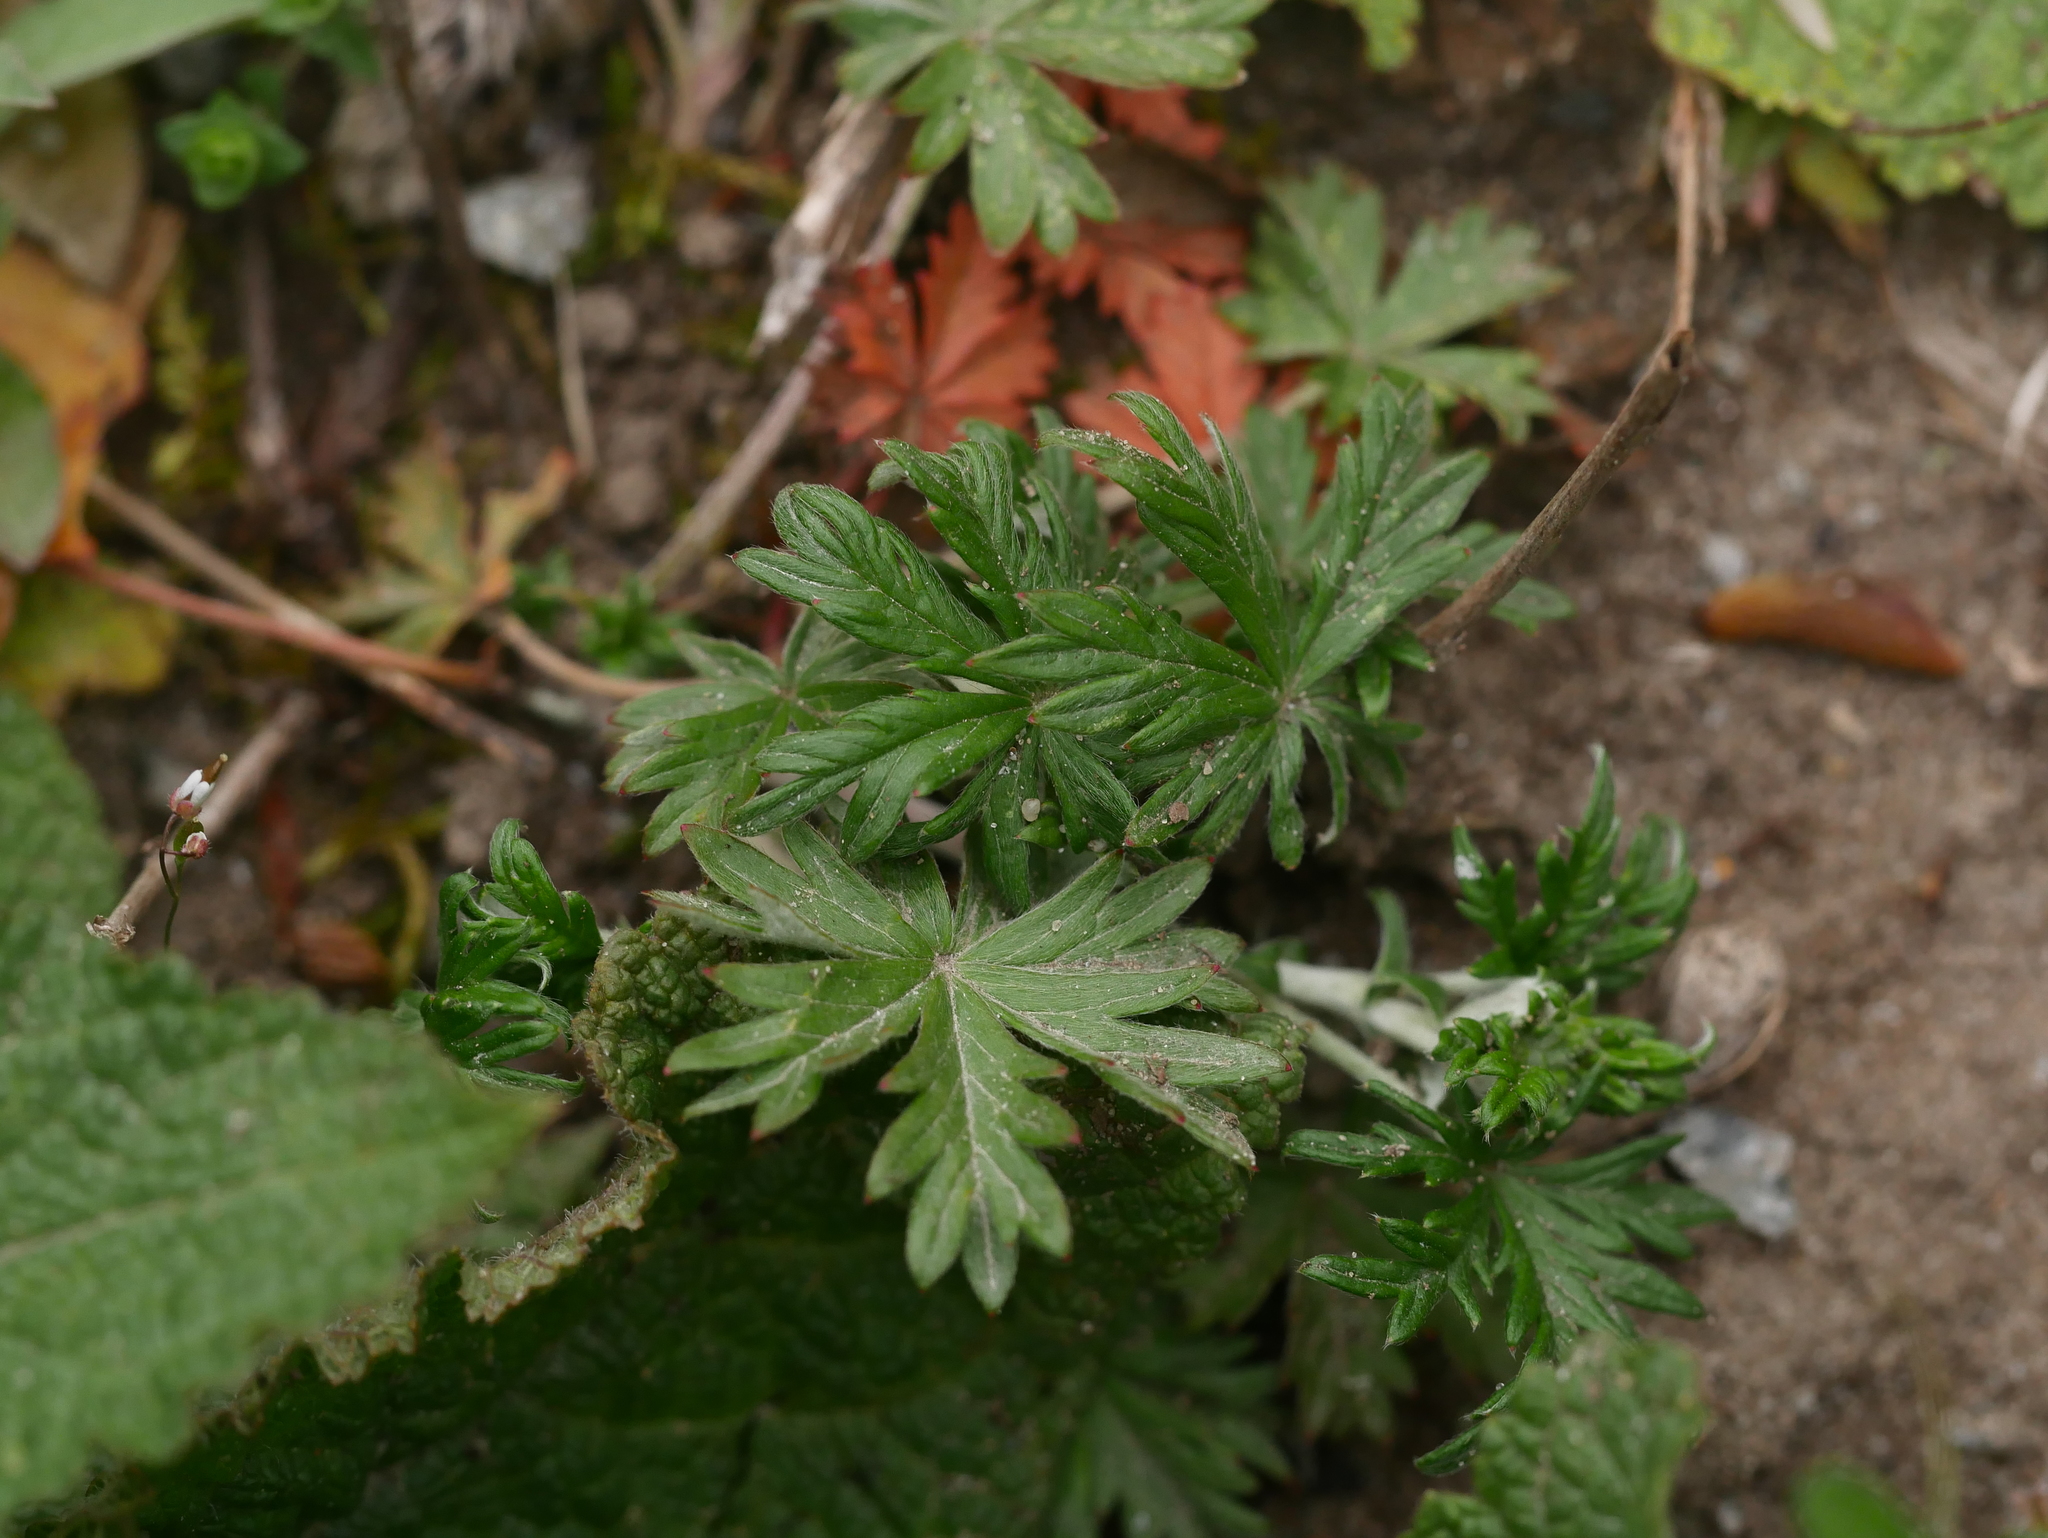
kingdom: Plantae
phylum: Tracheophyta
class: Magnoliopsida
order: Rosales
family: Rosaceae
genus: Potentilla
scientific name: Potentilla argentea
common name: Hoary cinquefoil
